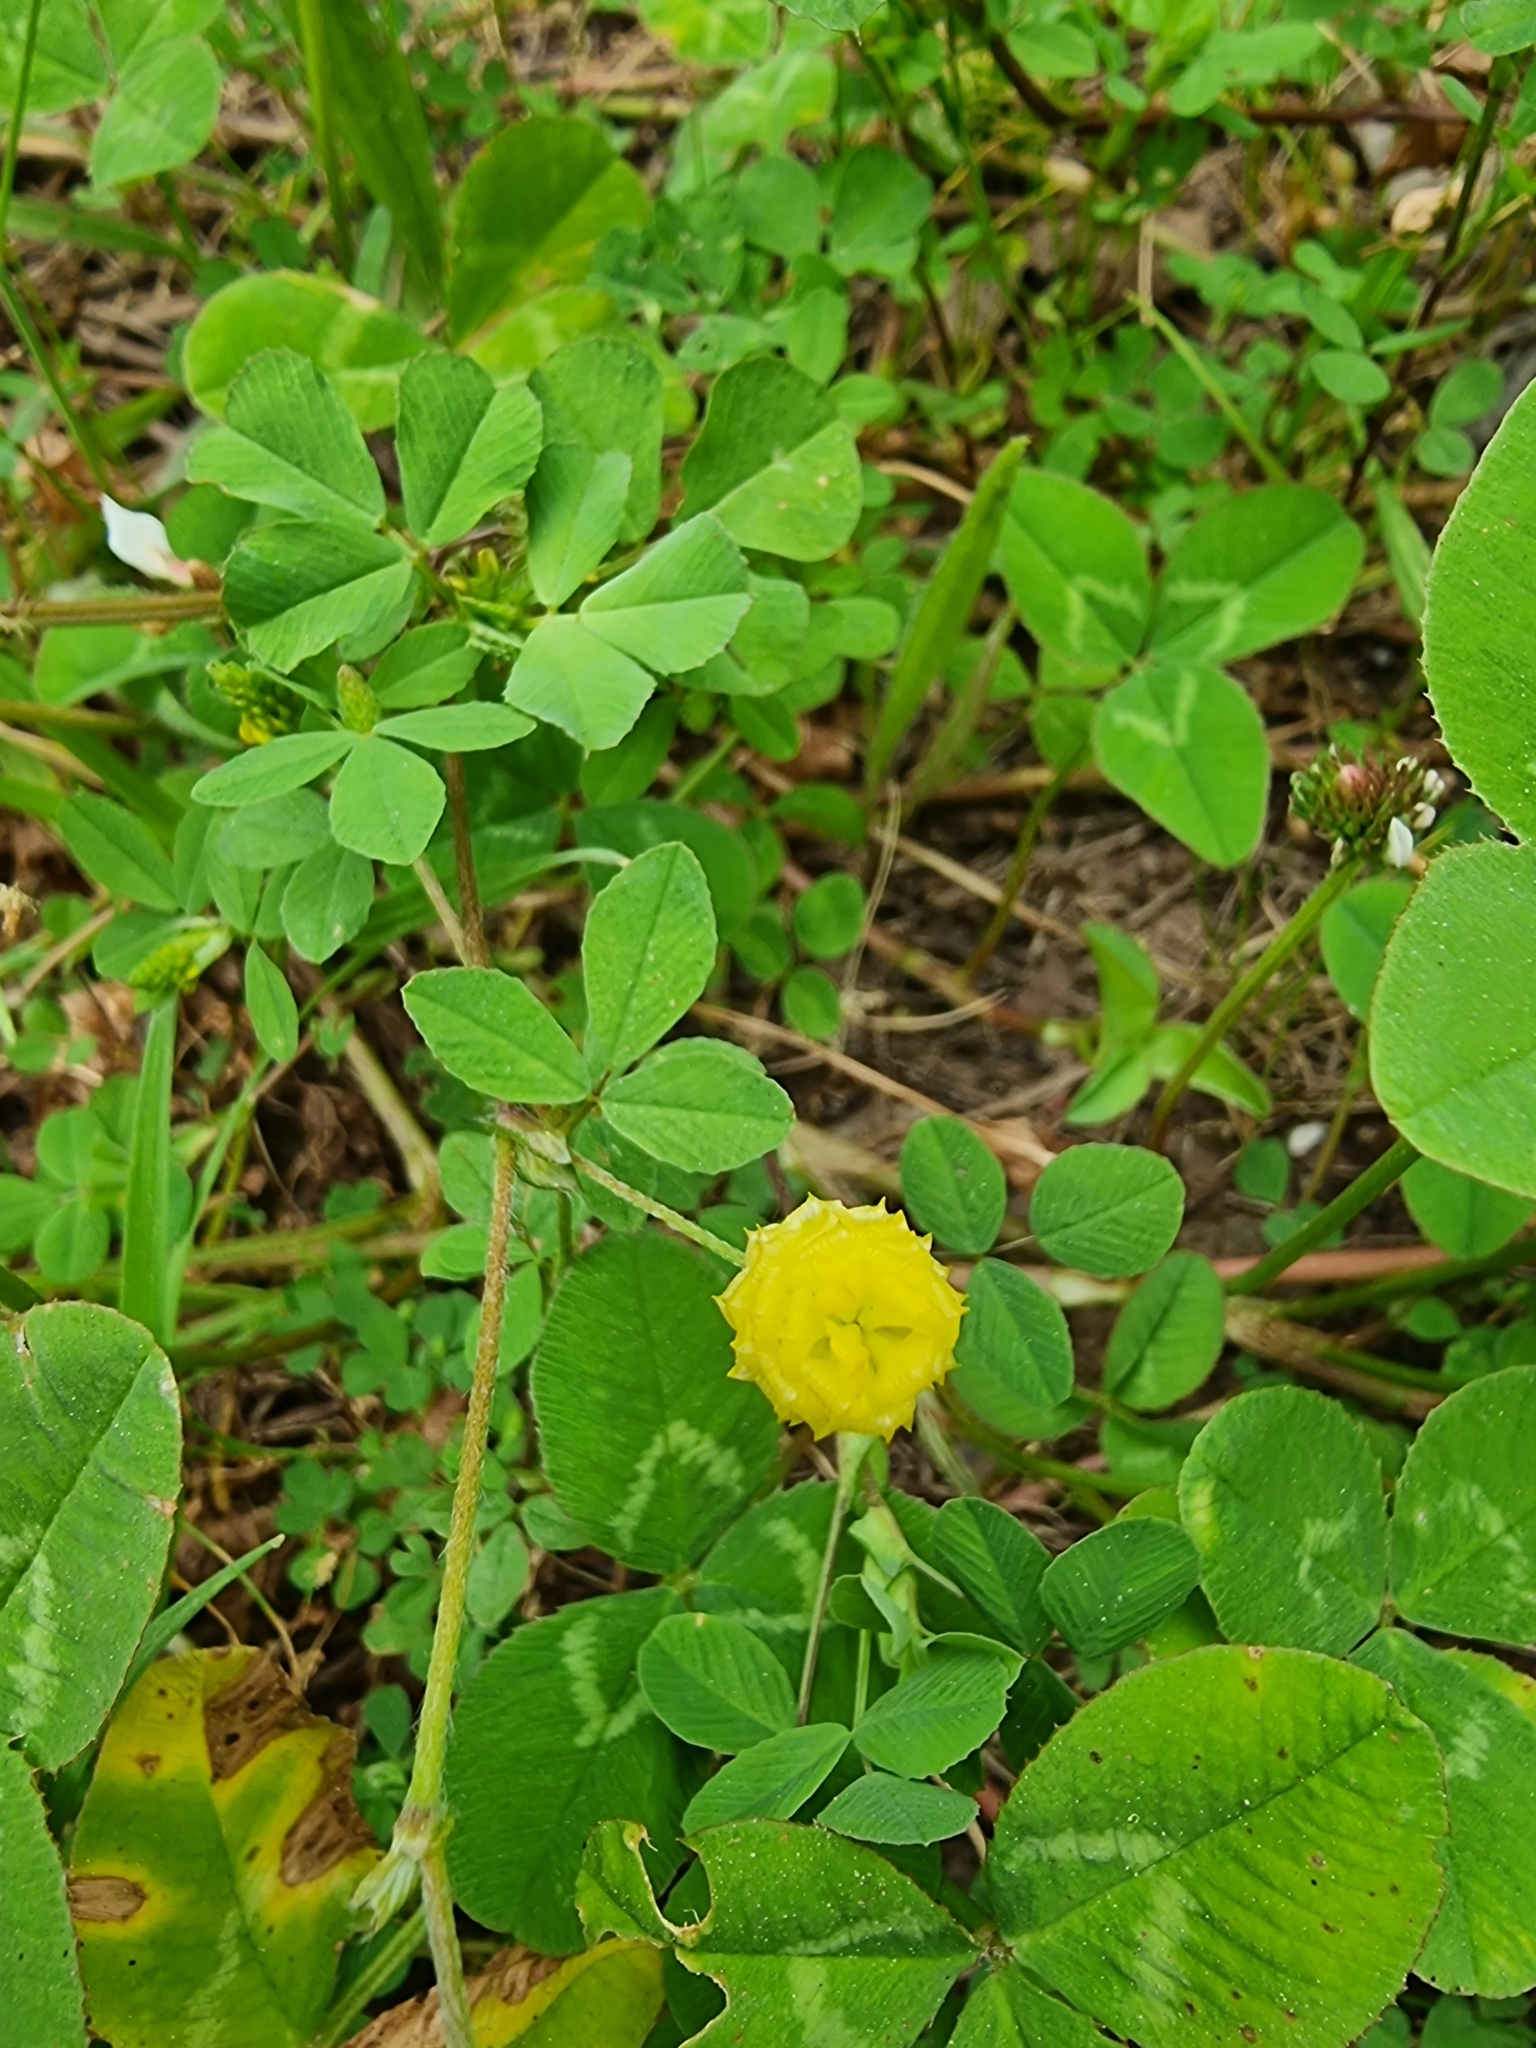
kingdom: Plantae
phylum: Tracheophyta
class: Magnoliopsida
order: Fabales
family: Fabaceae
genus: Trifolium
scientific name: Trifolium campestre
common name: Field clover
